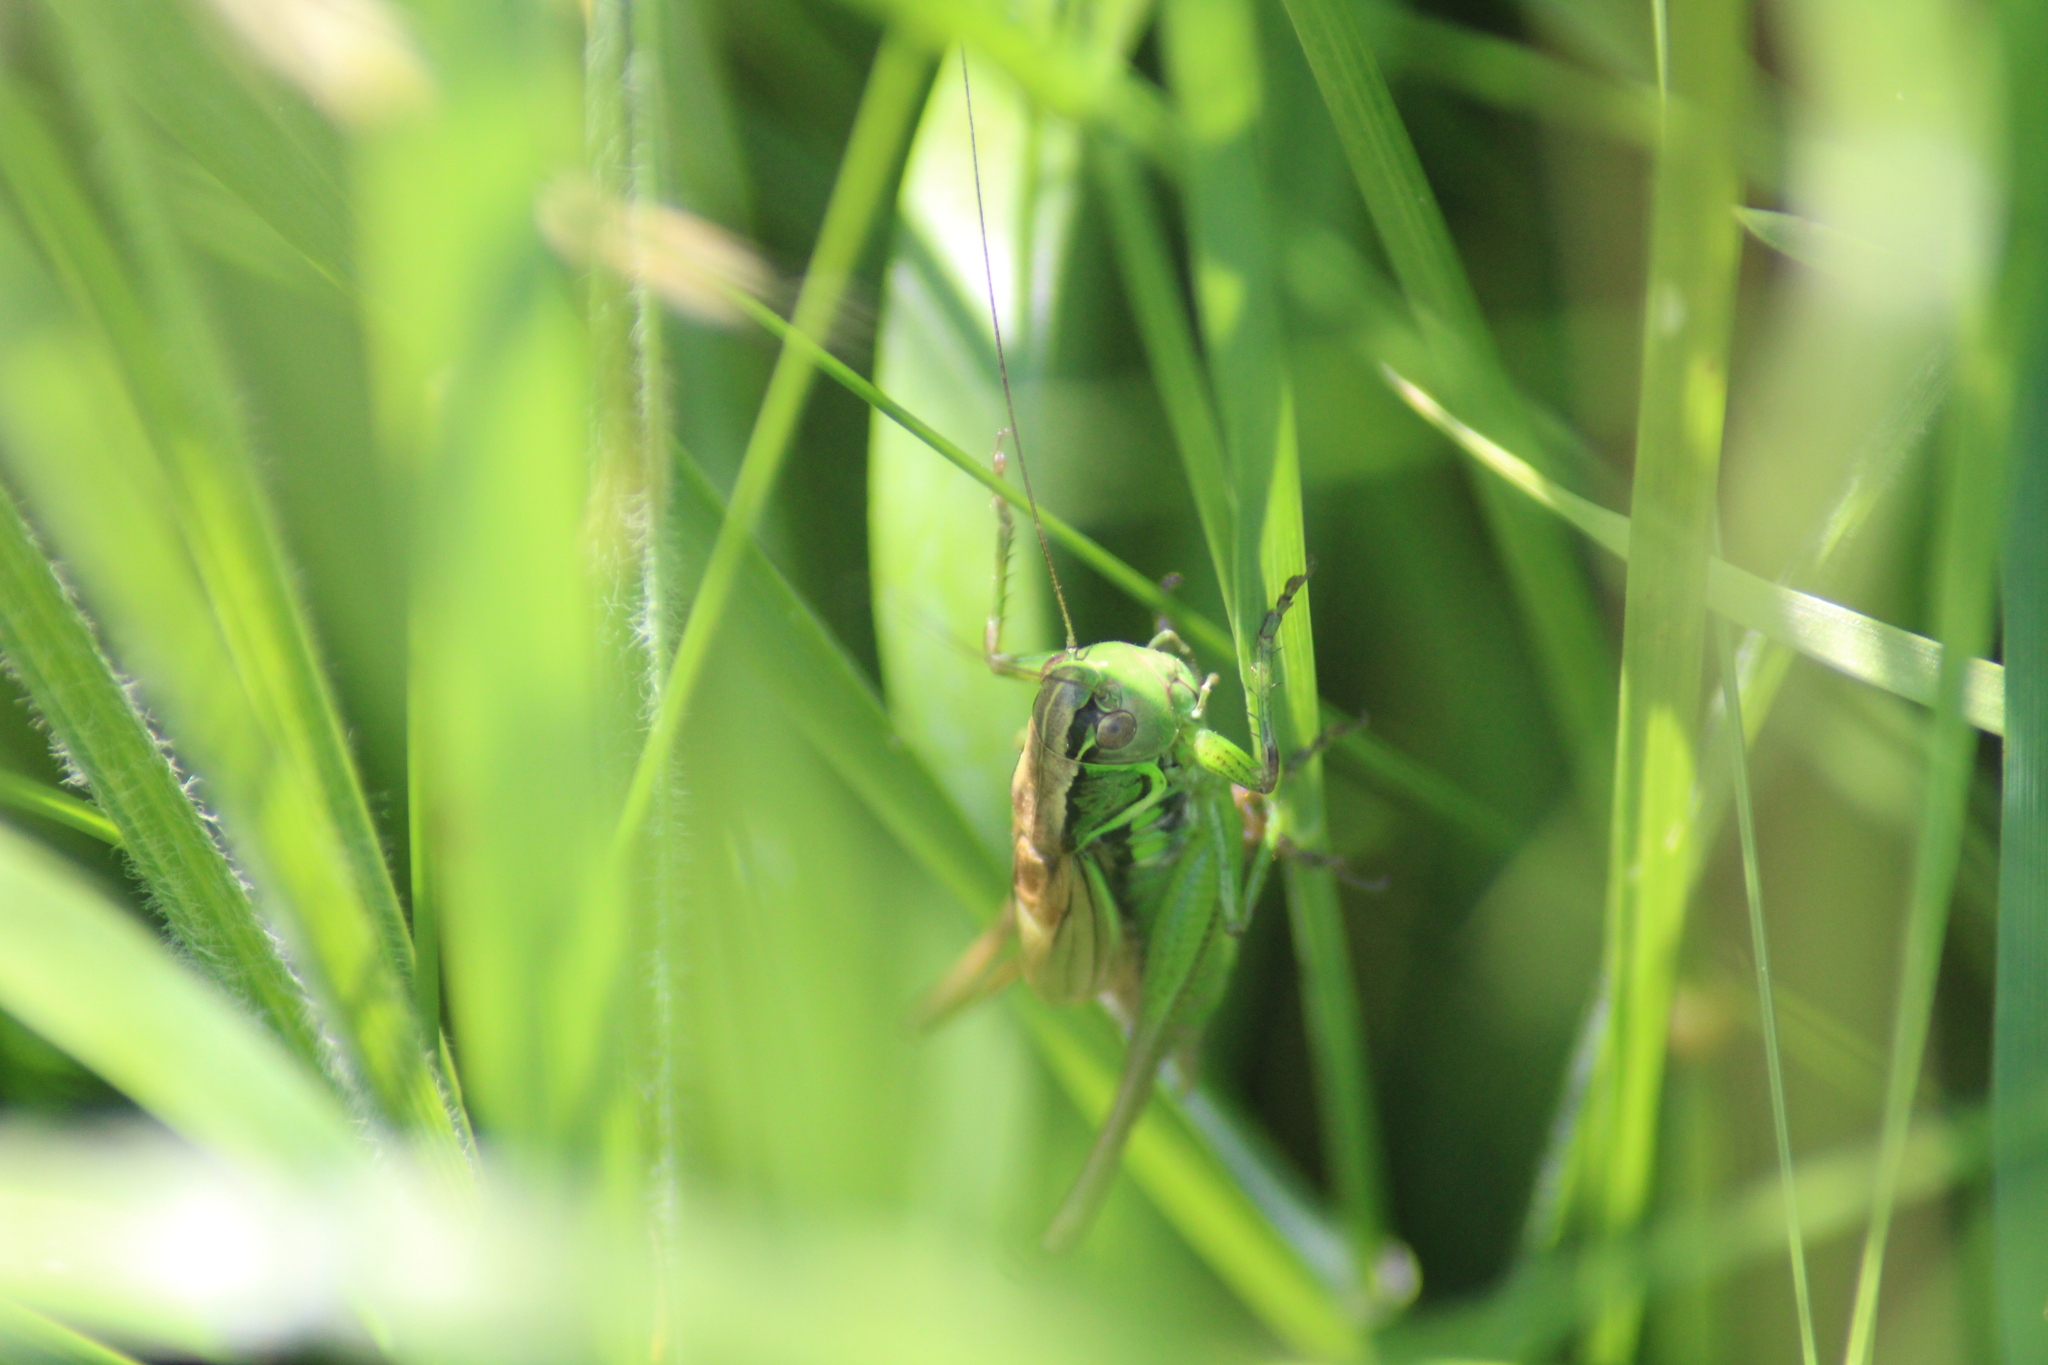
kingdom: Animalia
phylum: Arthropoda
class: Insecta
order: Orthoptera
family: Tettigoniidae
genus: Roeseliana
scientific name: Roeseliana roeselii
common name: Roesel's bush cricket
